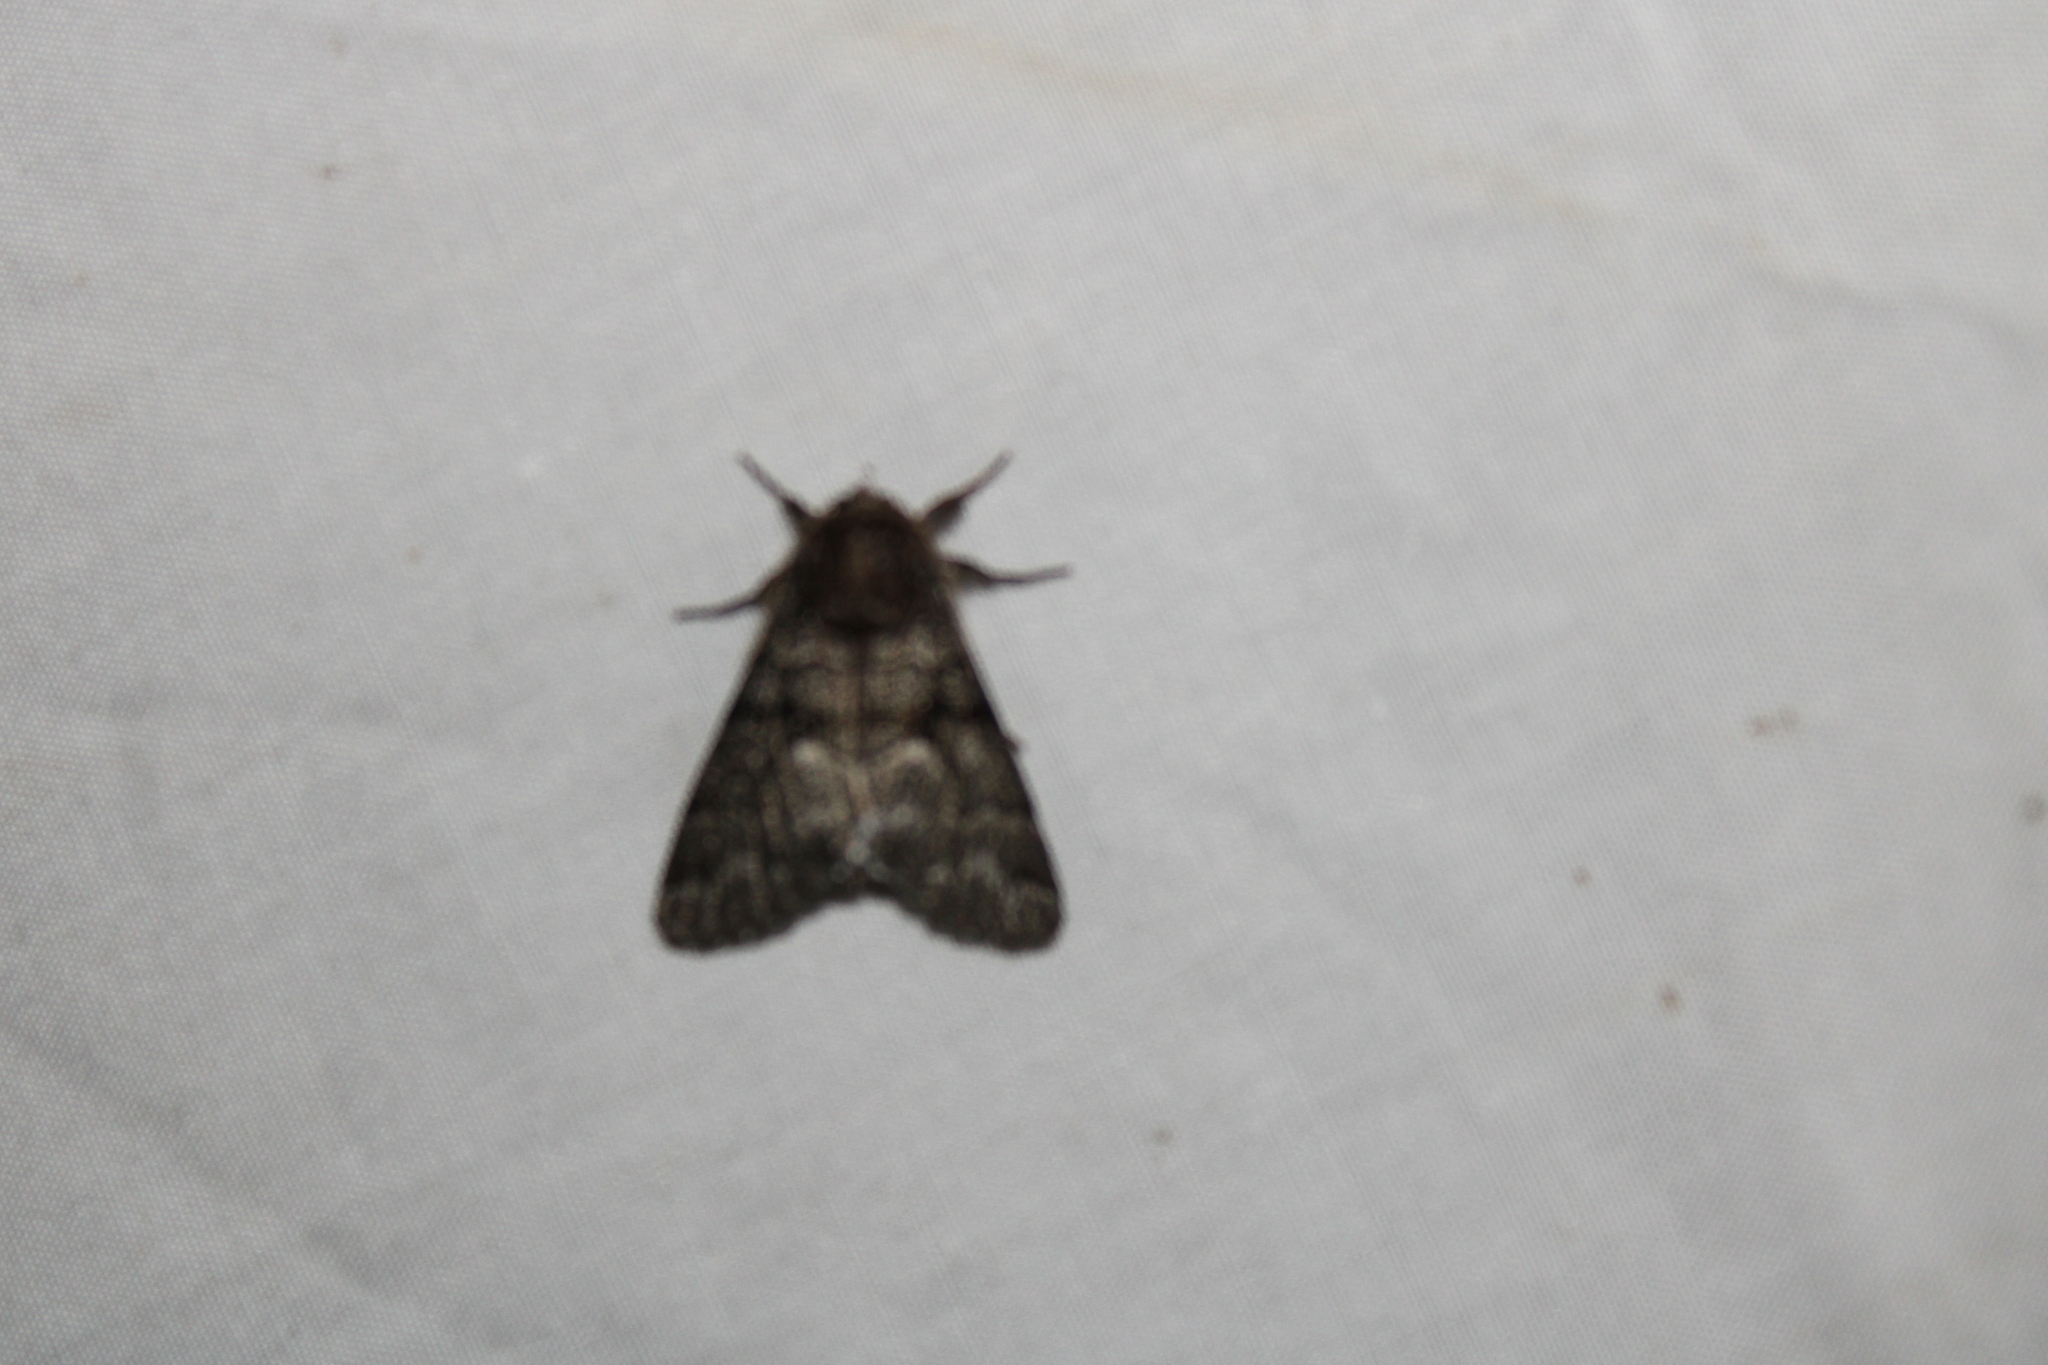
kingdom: Animalia
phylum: Arthropoda
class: Insecta
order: Lepidoptera
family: Noctuidae
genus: Panthea
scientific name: Panthea furcilla
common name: Eastern panthea moth
